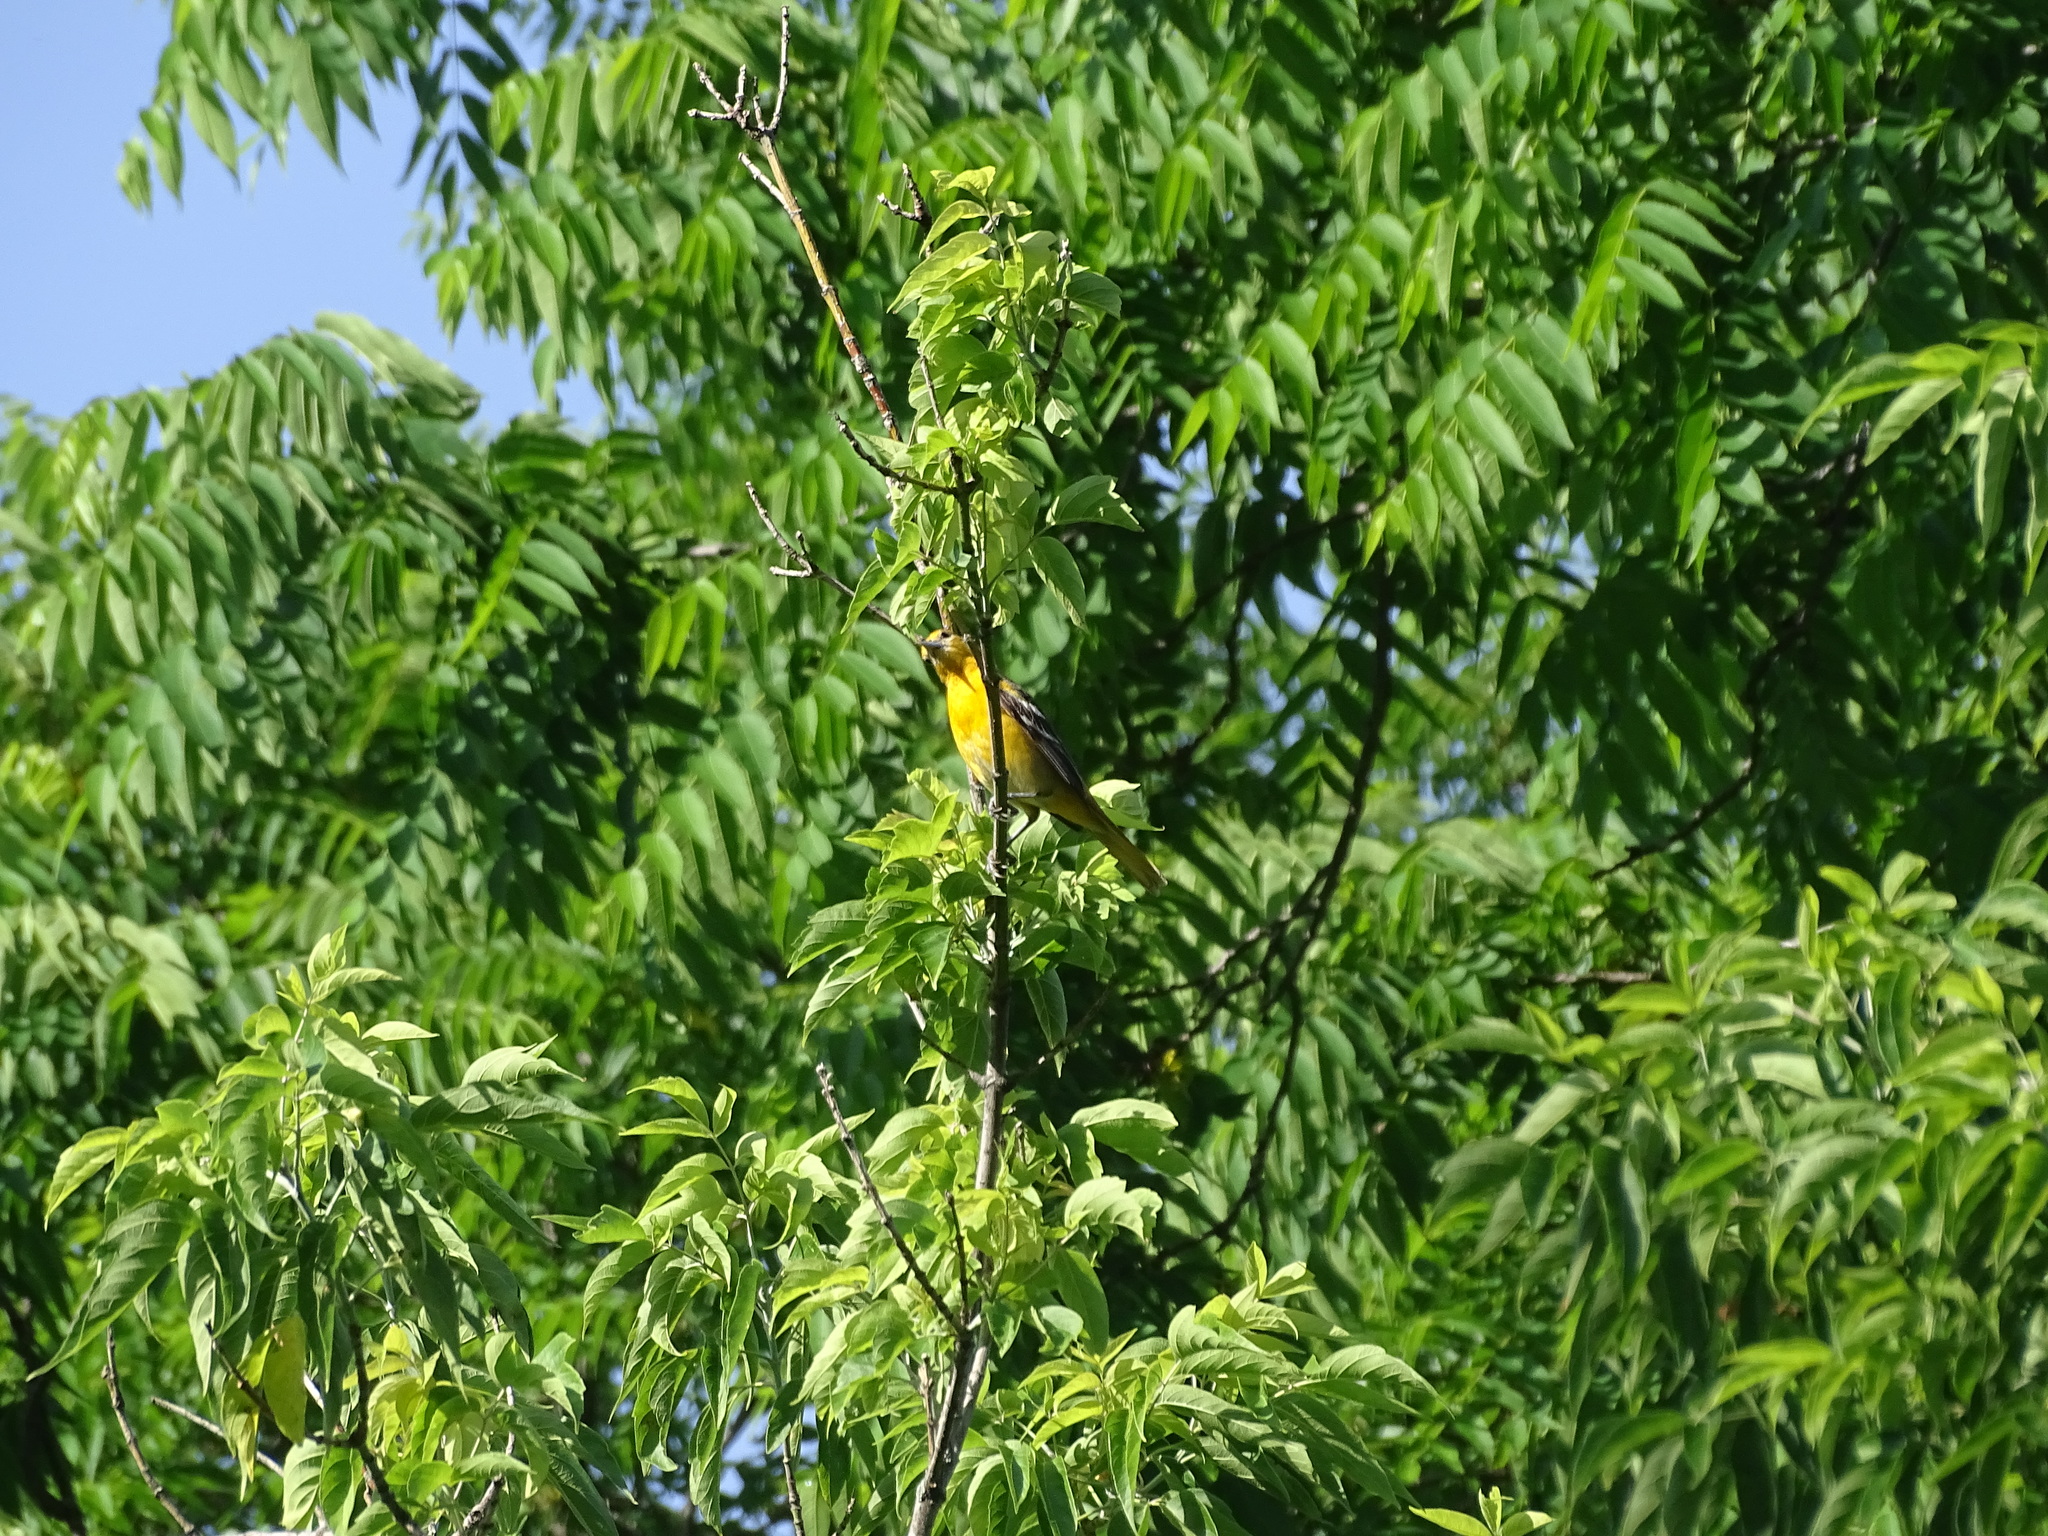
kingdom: Animalia
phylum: Chordata
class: Aves
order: Passeriformes
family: Icteridae
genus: Icterus
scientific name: Icterus galbula
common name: Baltimore oriole
